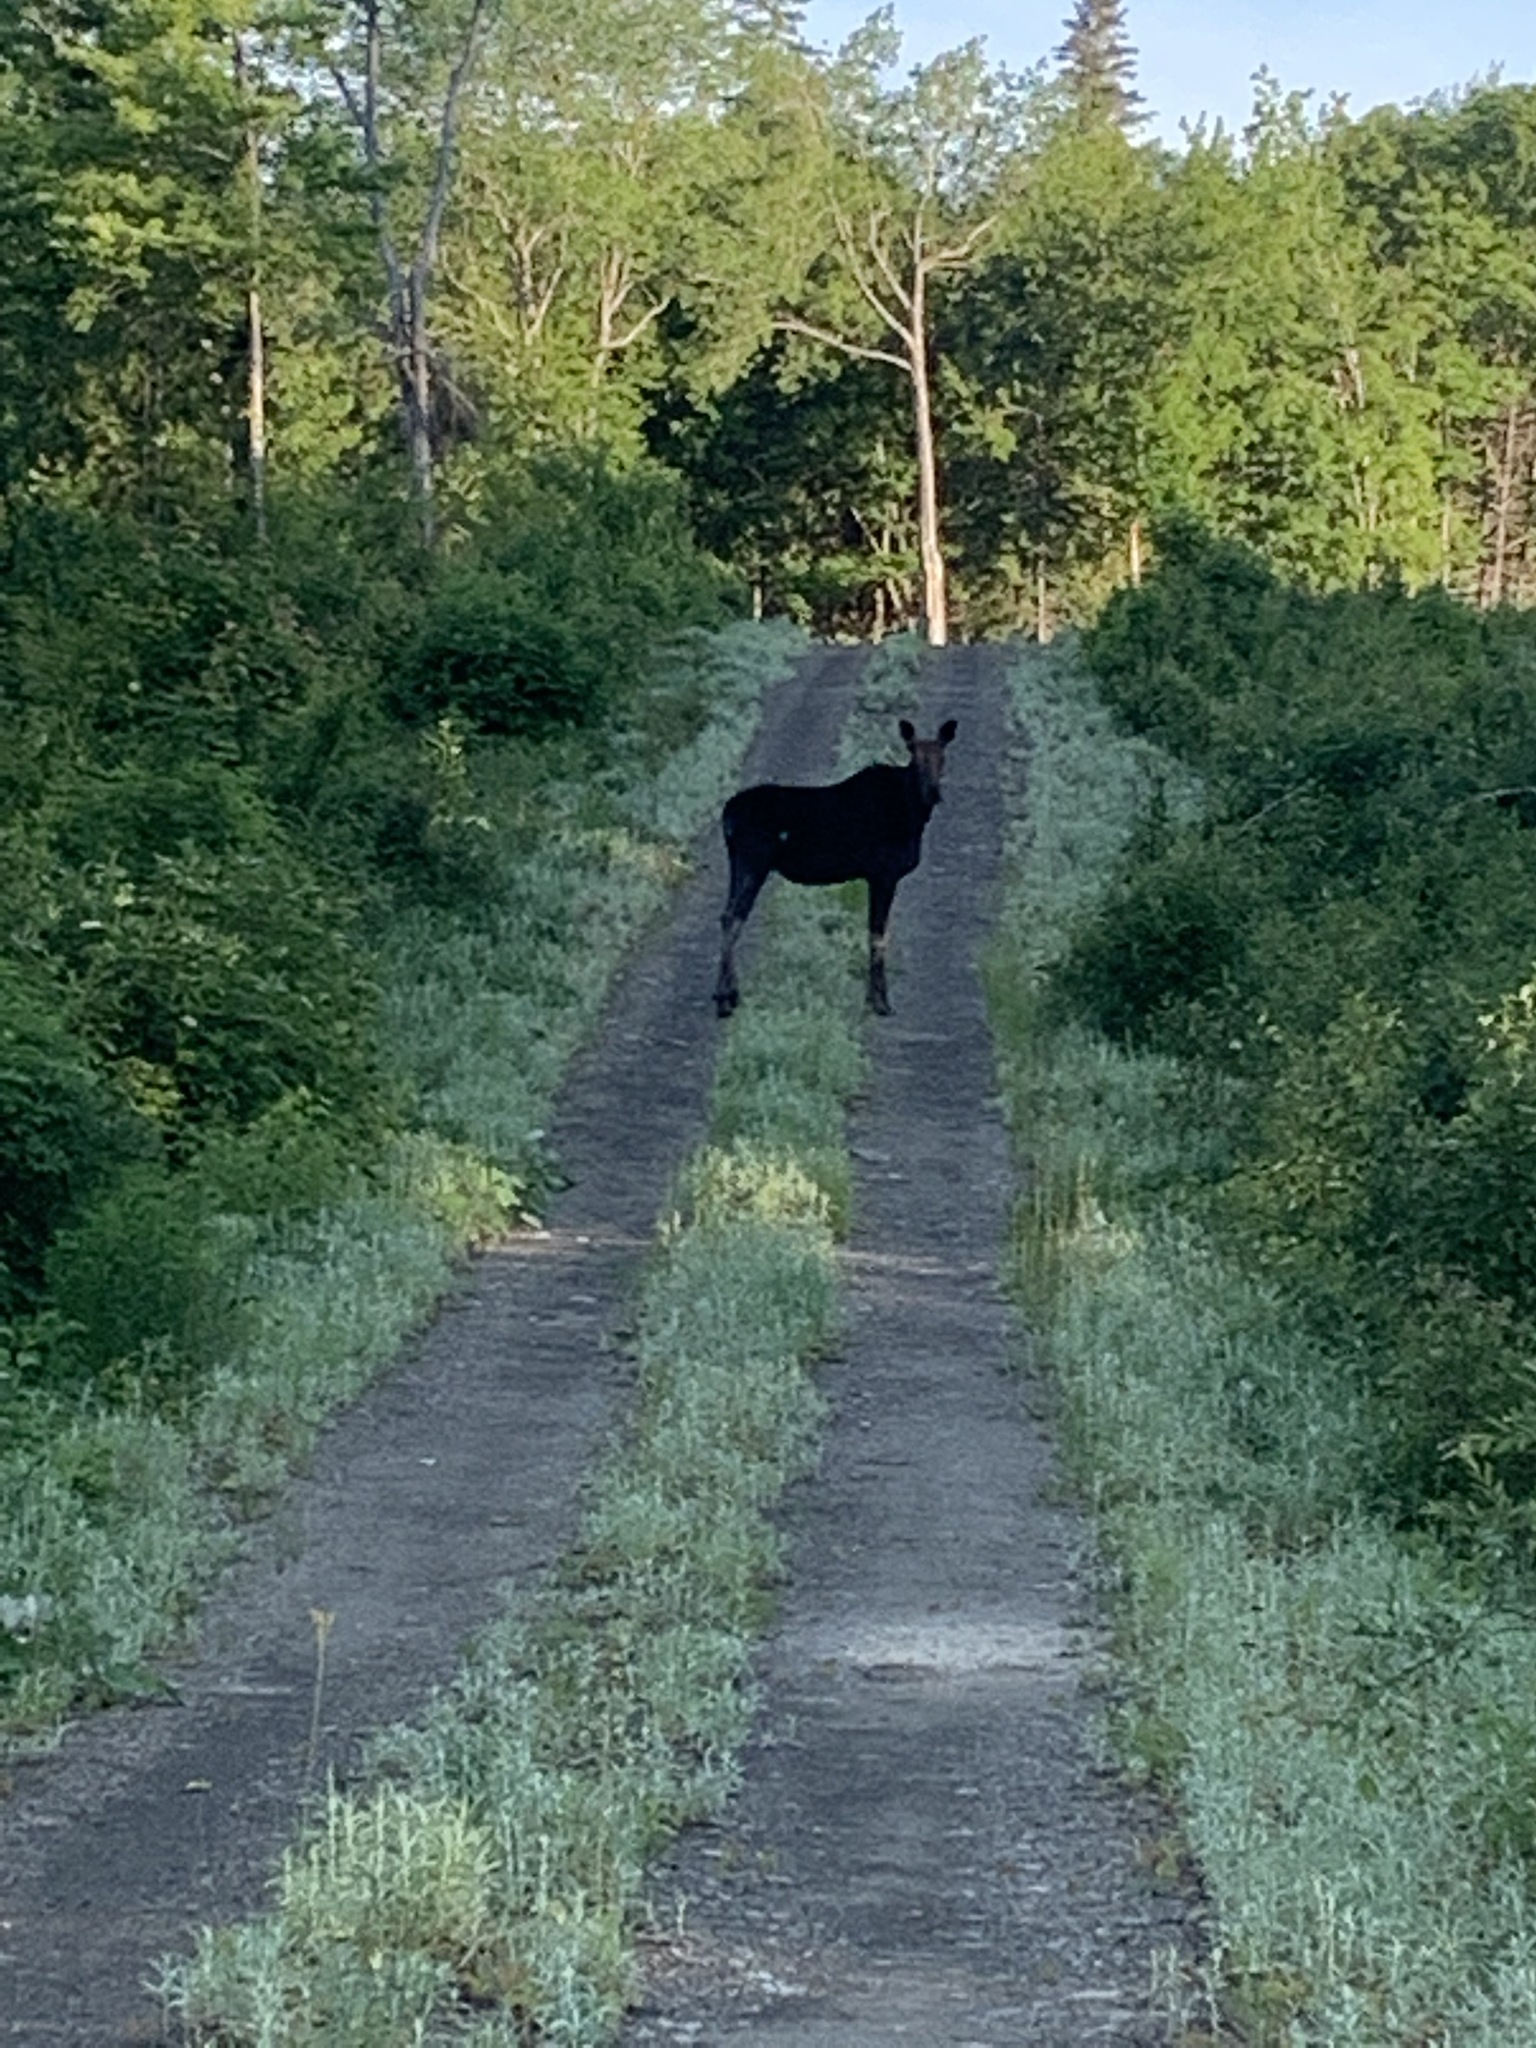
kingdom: Animalia
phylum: Chordata
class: Mammalia
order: Artiodactyla
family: Cervidae
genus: Alces
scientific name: Alces alces
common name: Moose
